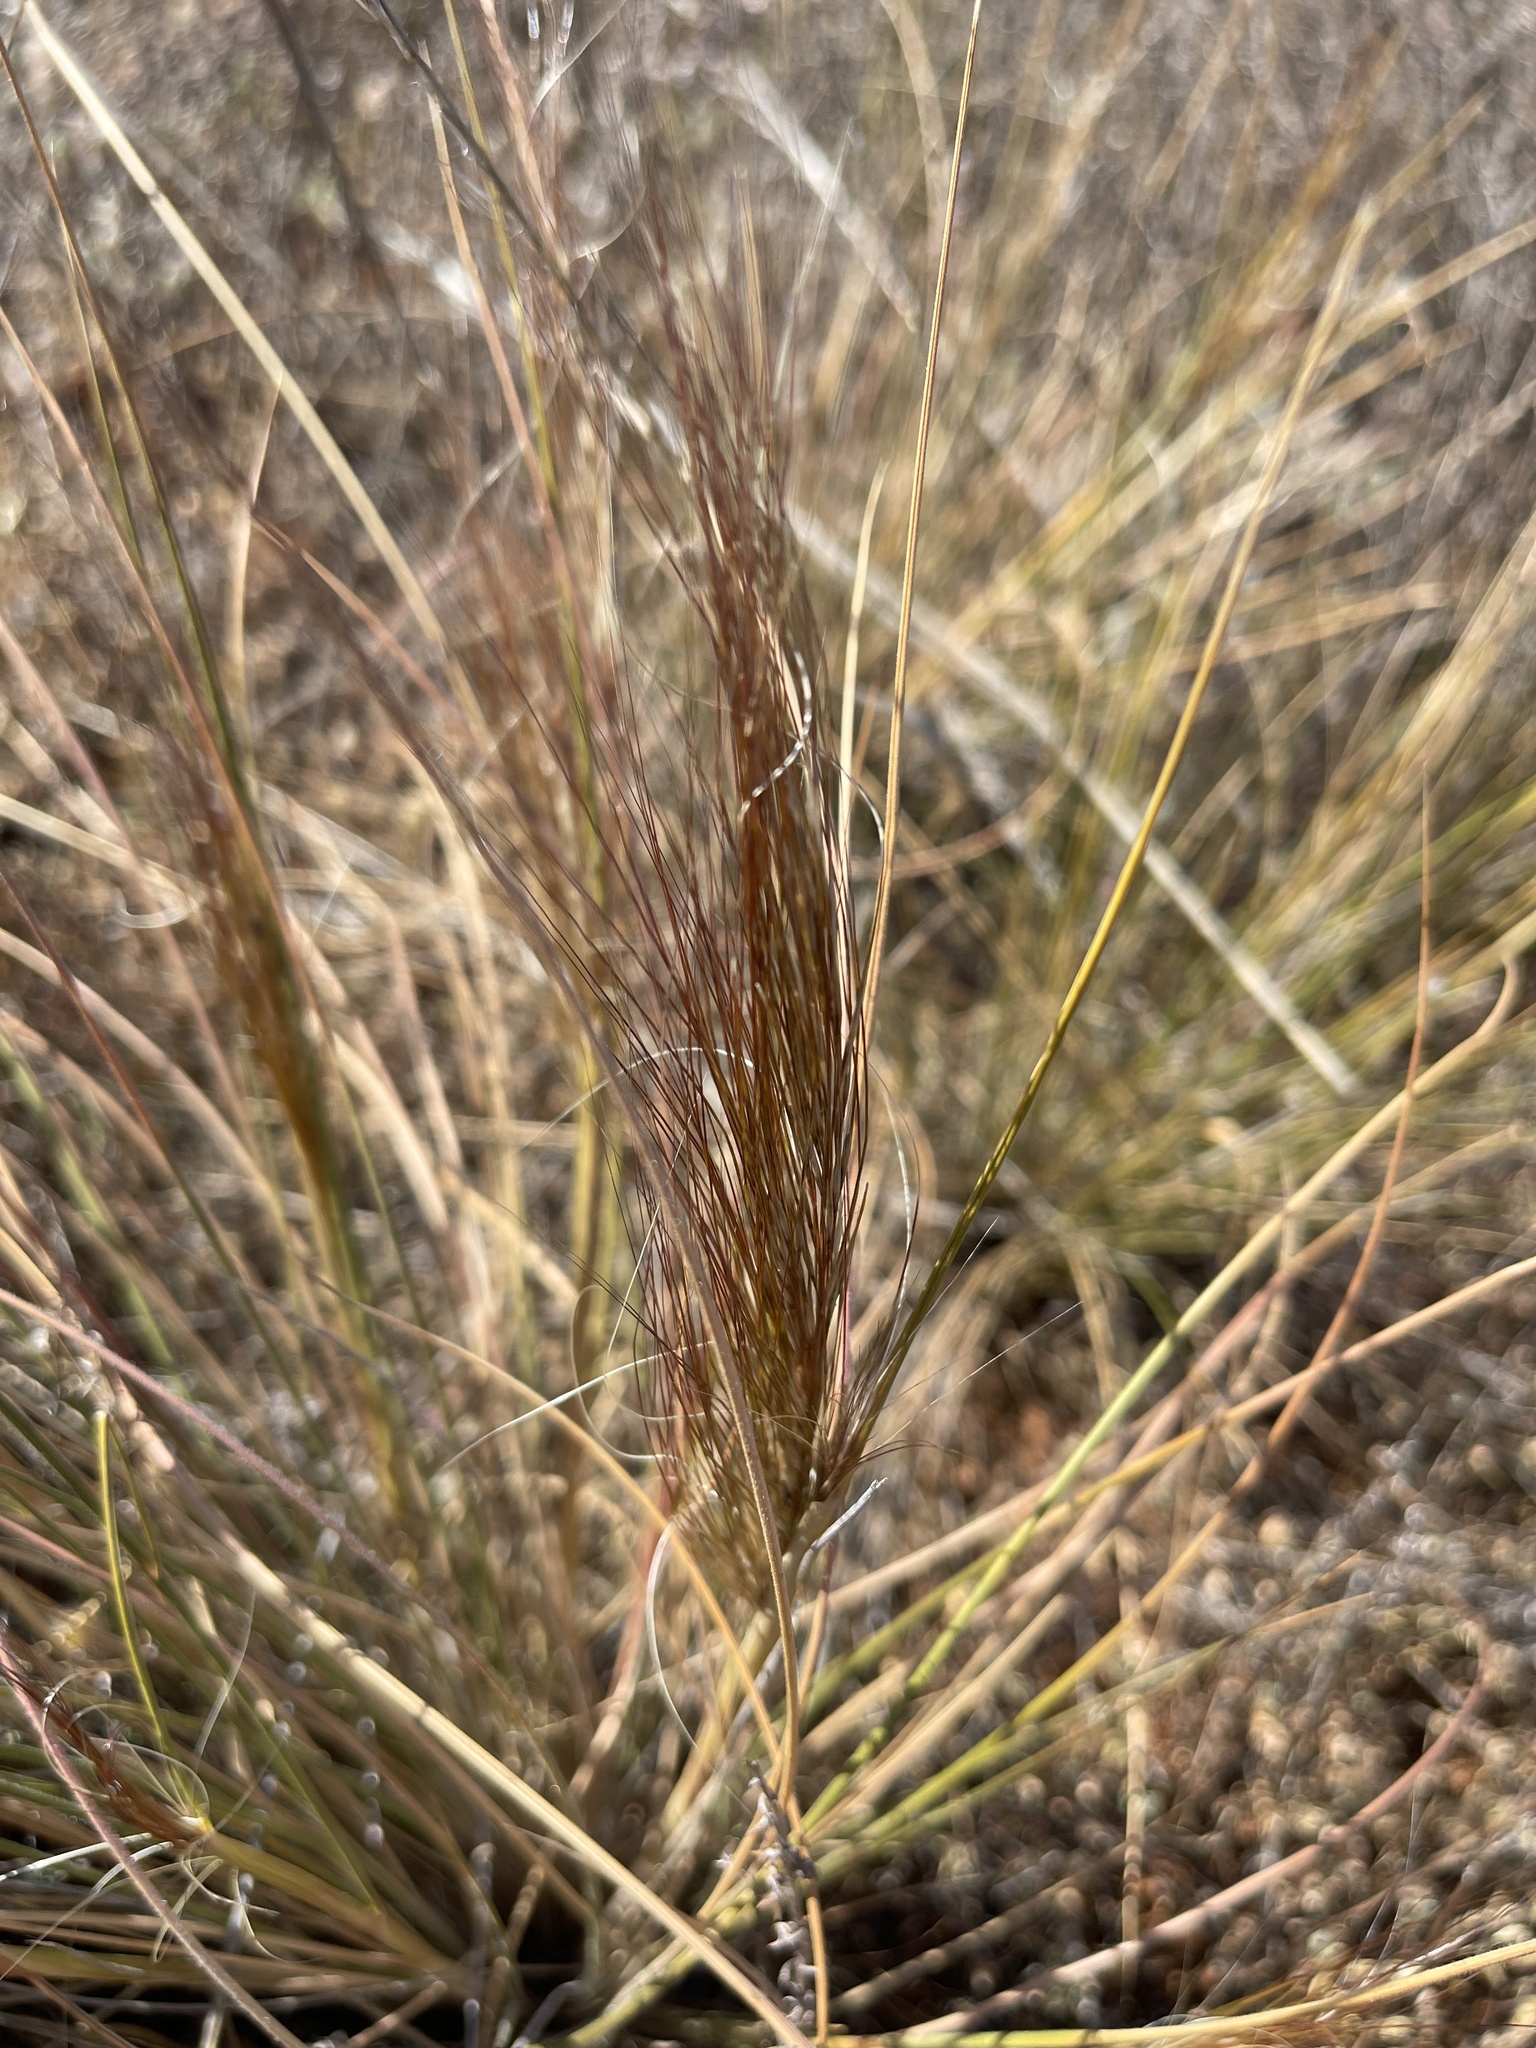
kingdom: Plantae
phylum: Tracheophyta
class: Liliopsida
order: Poales
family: Poaceae
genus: Austrostipa
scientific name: Austrostipa
